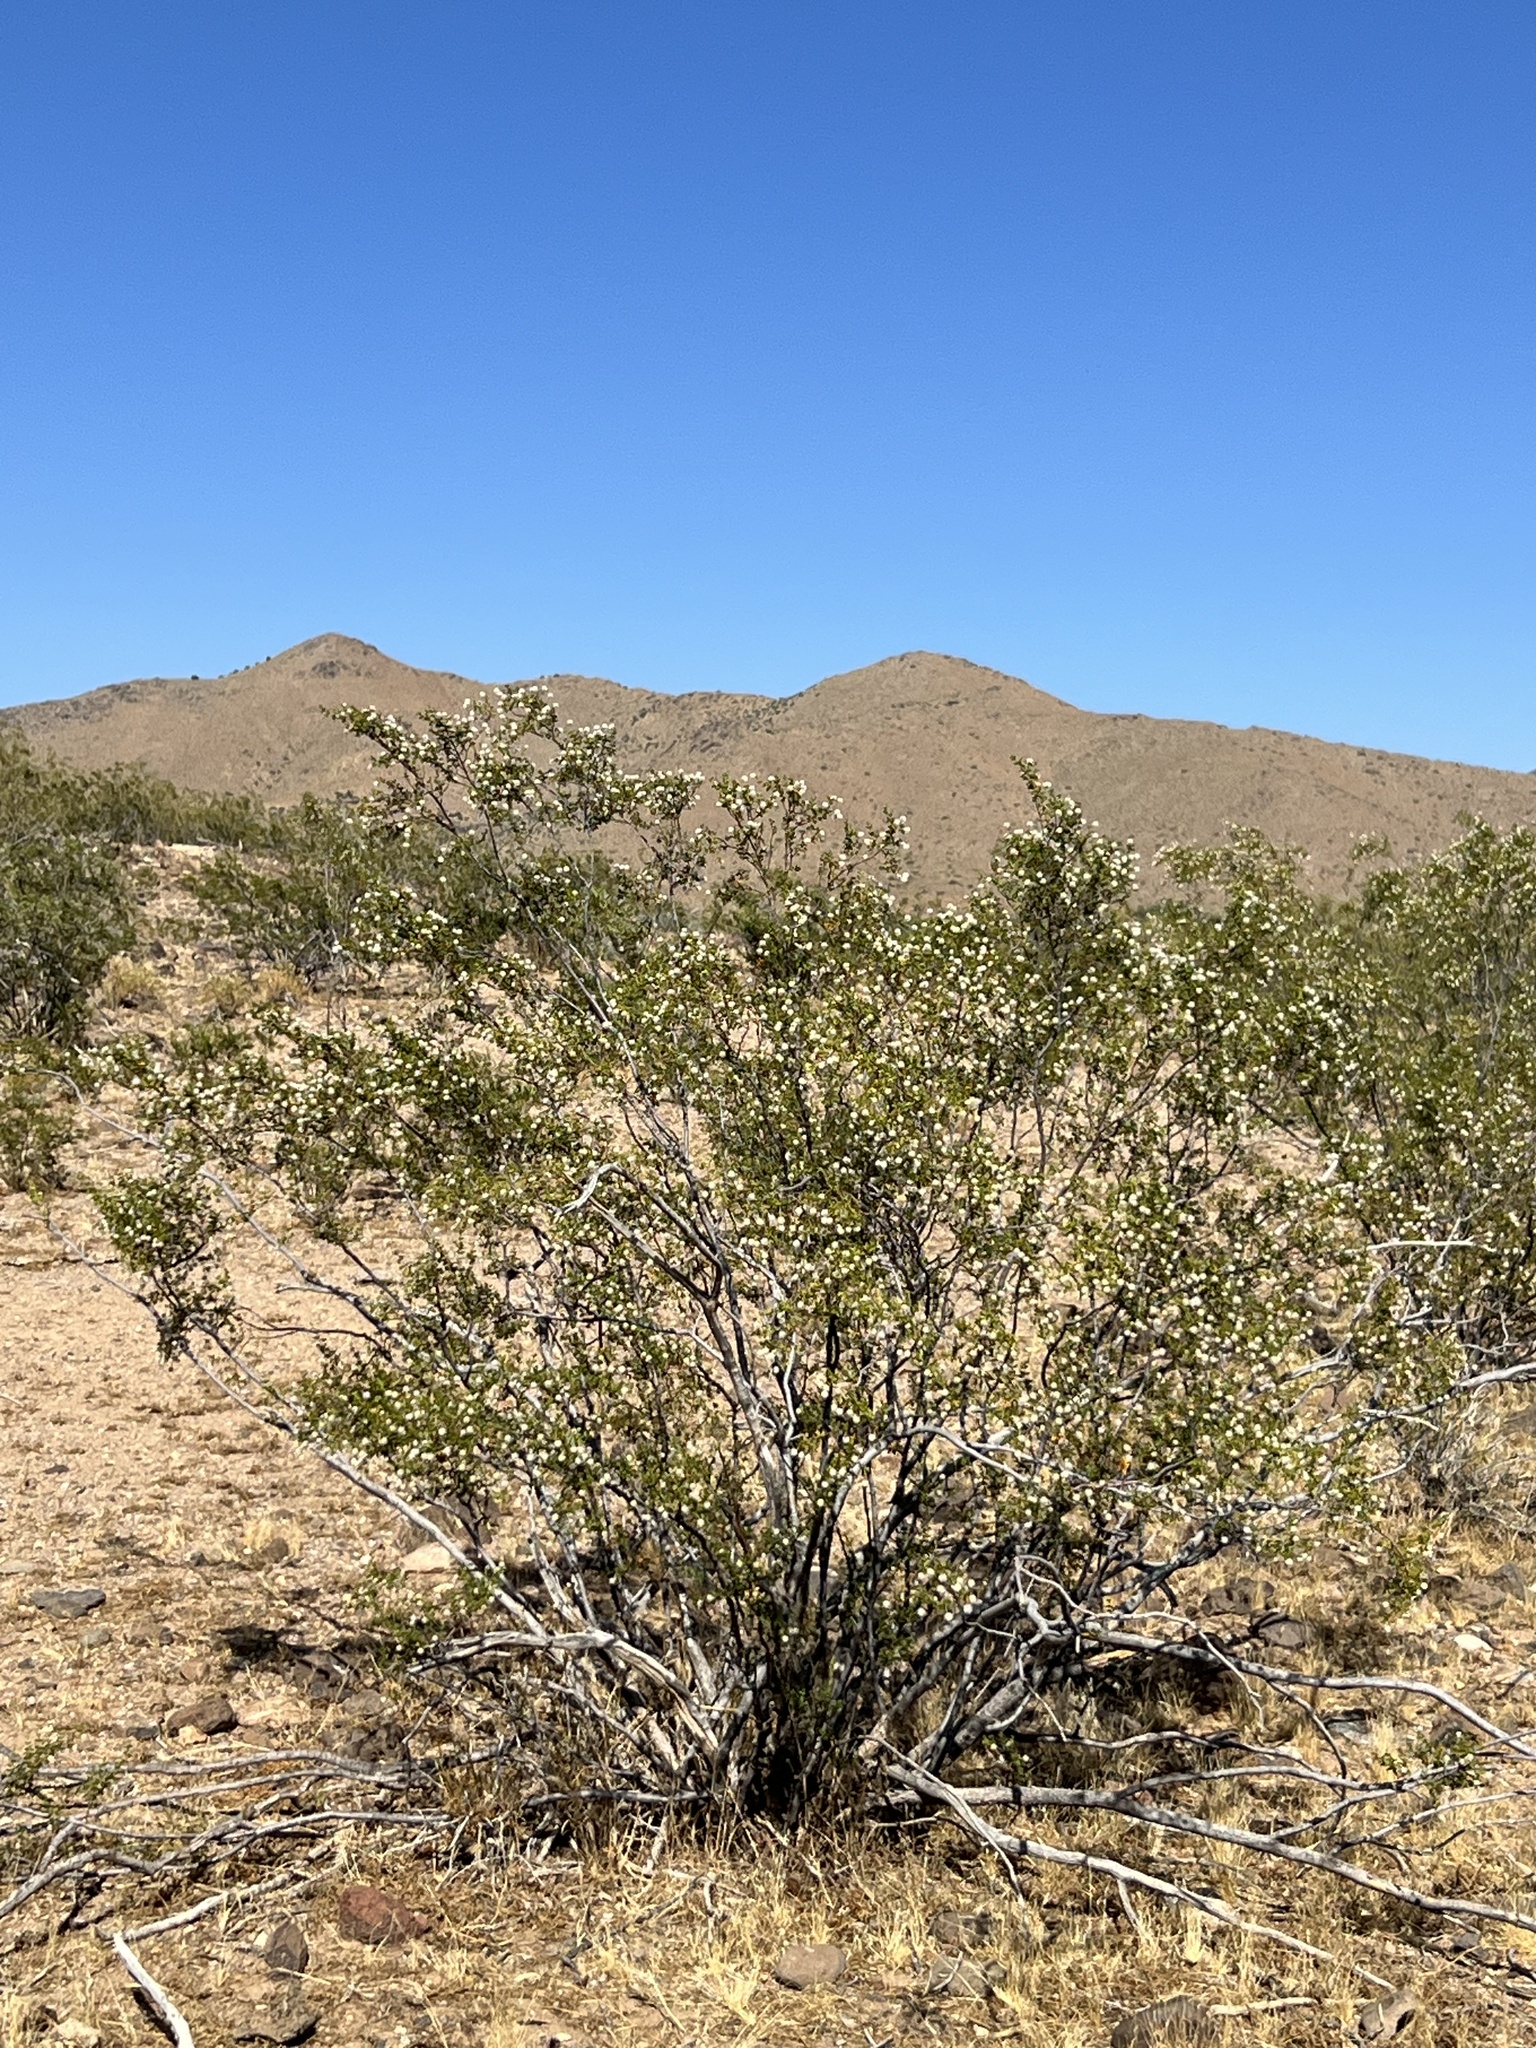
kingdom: Plantae
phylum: Tracheophyta
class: Magnoliopsida
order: Zygophyllales
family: Zygophyllaceae
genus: Larrea
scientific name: Larrea tridentata
